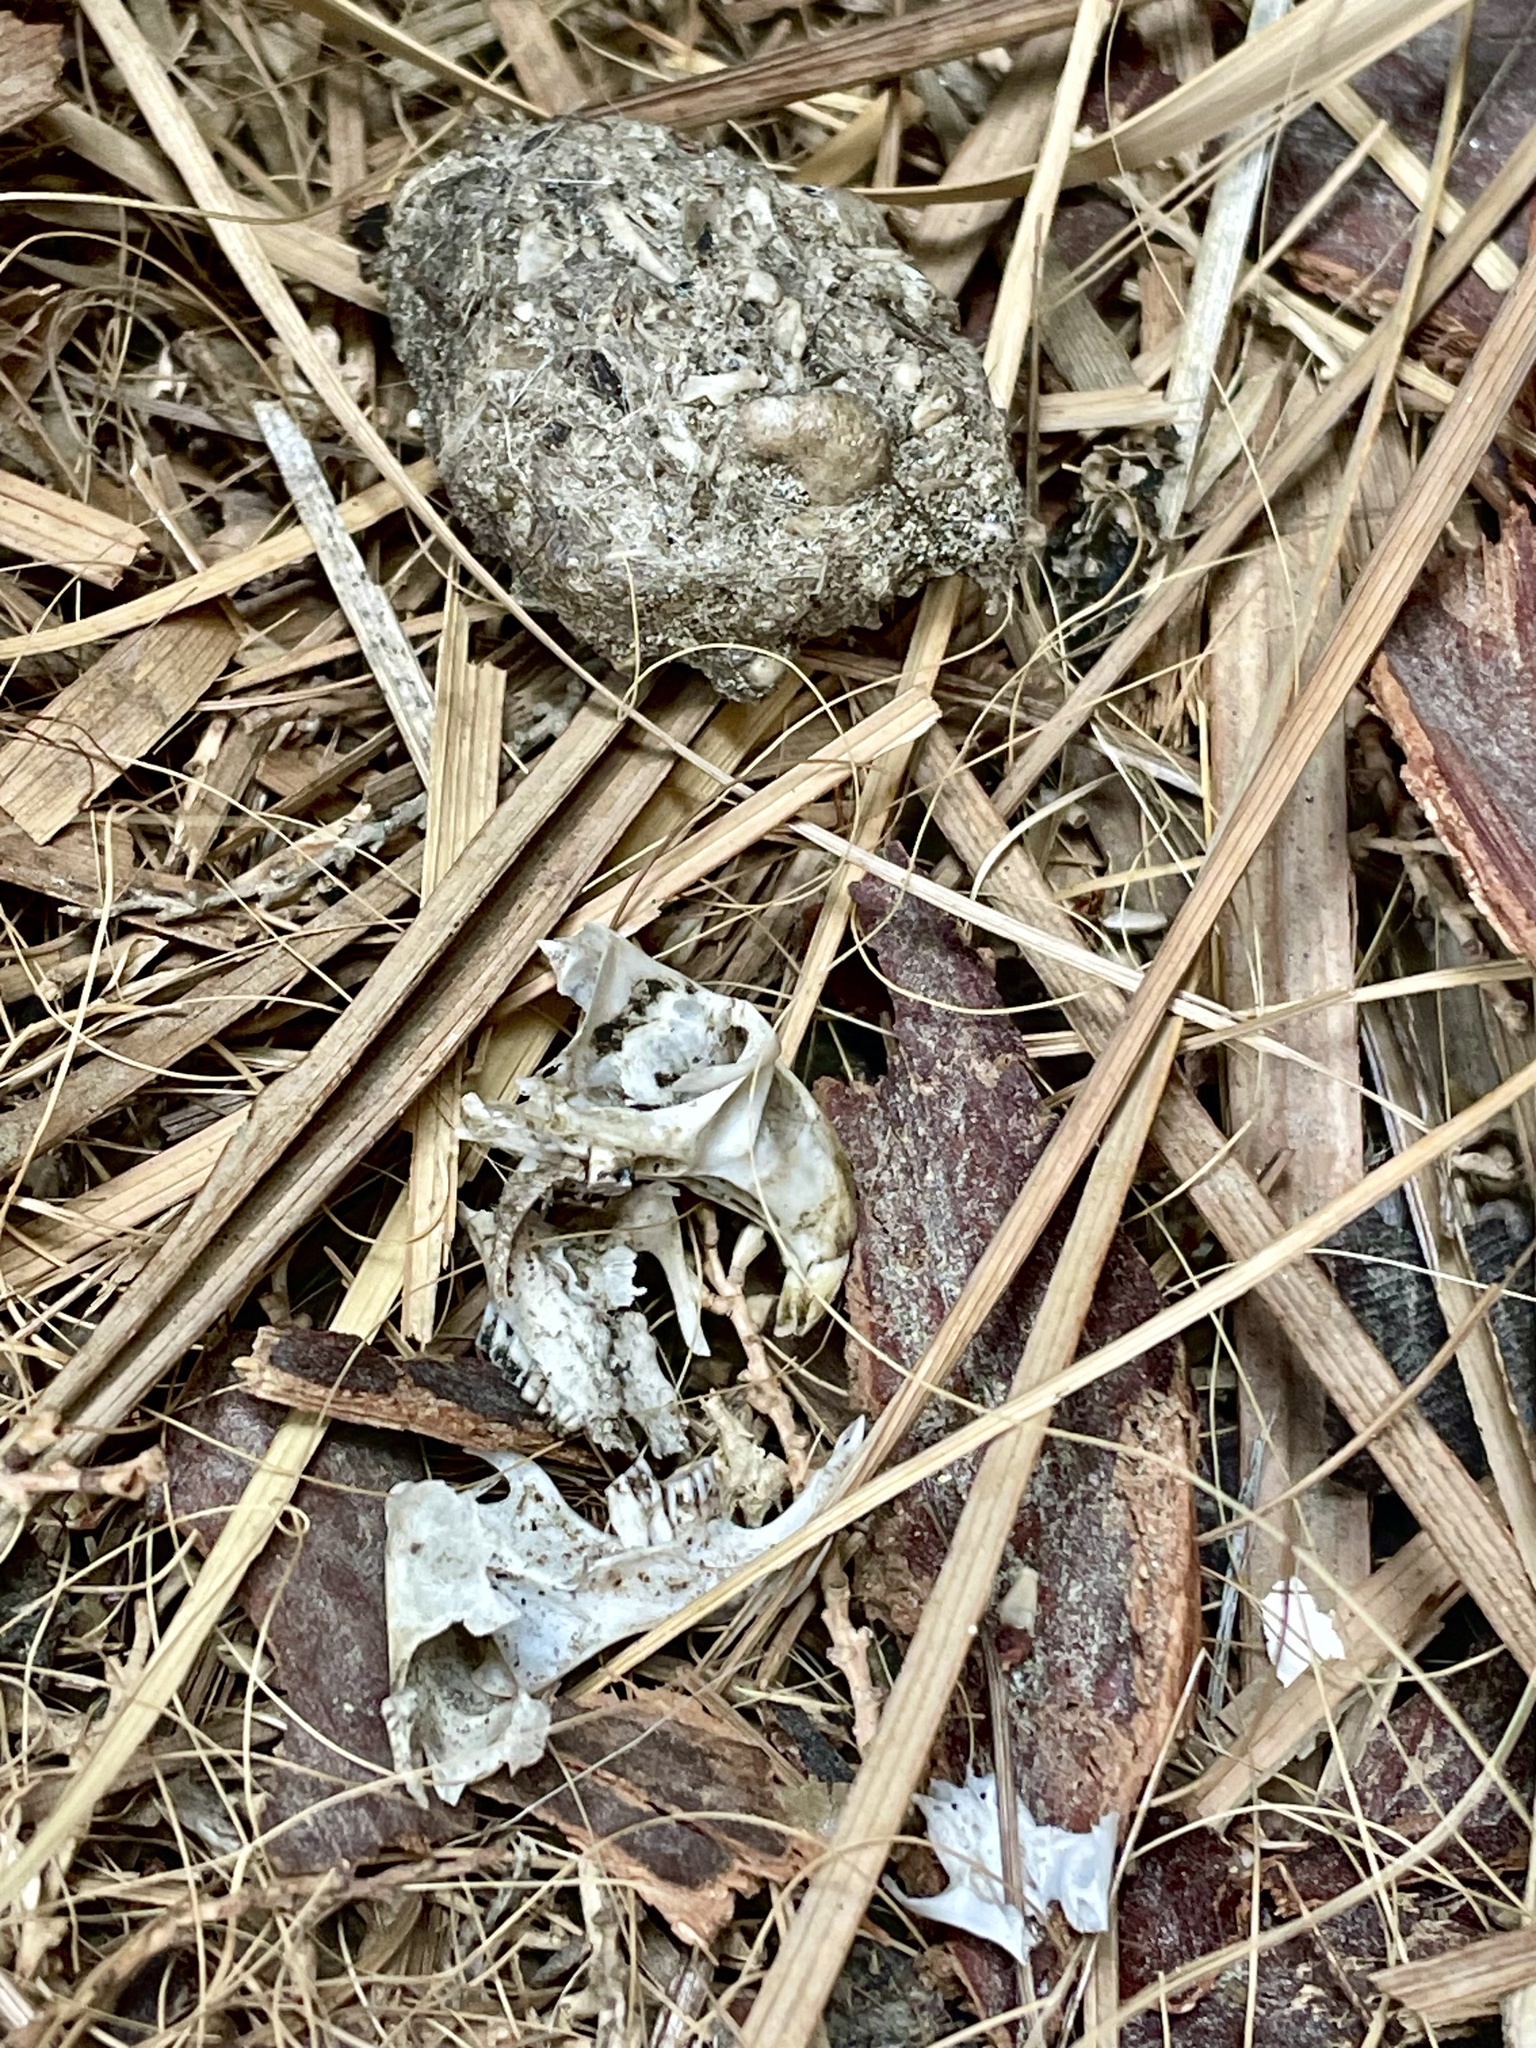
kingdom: Animalia
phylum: Chordata
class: Mammalia
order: Rodentia
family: Cricetidae
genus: Neotoma
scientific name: Neotoma lepida
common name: Desert woodrat
